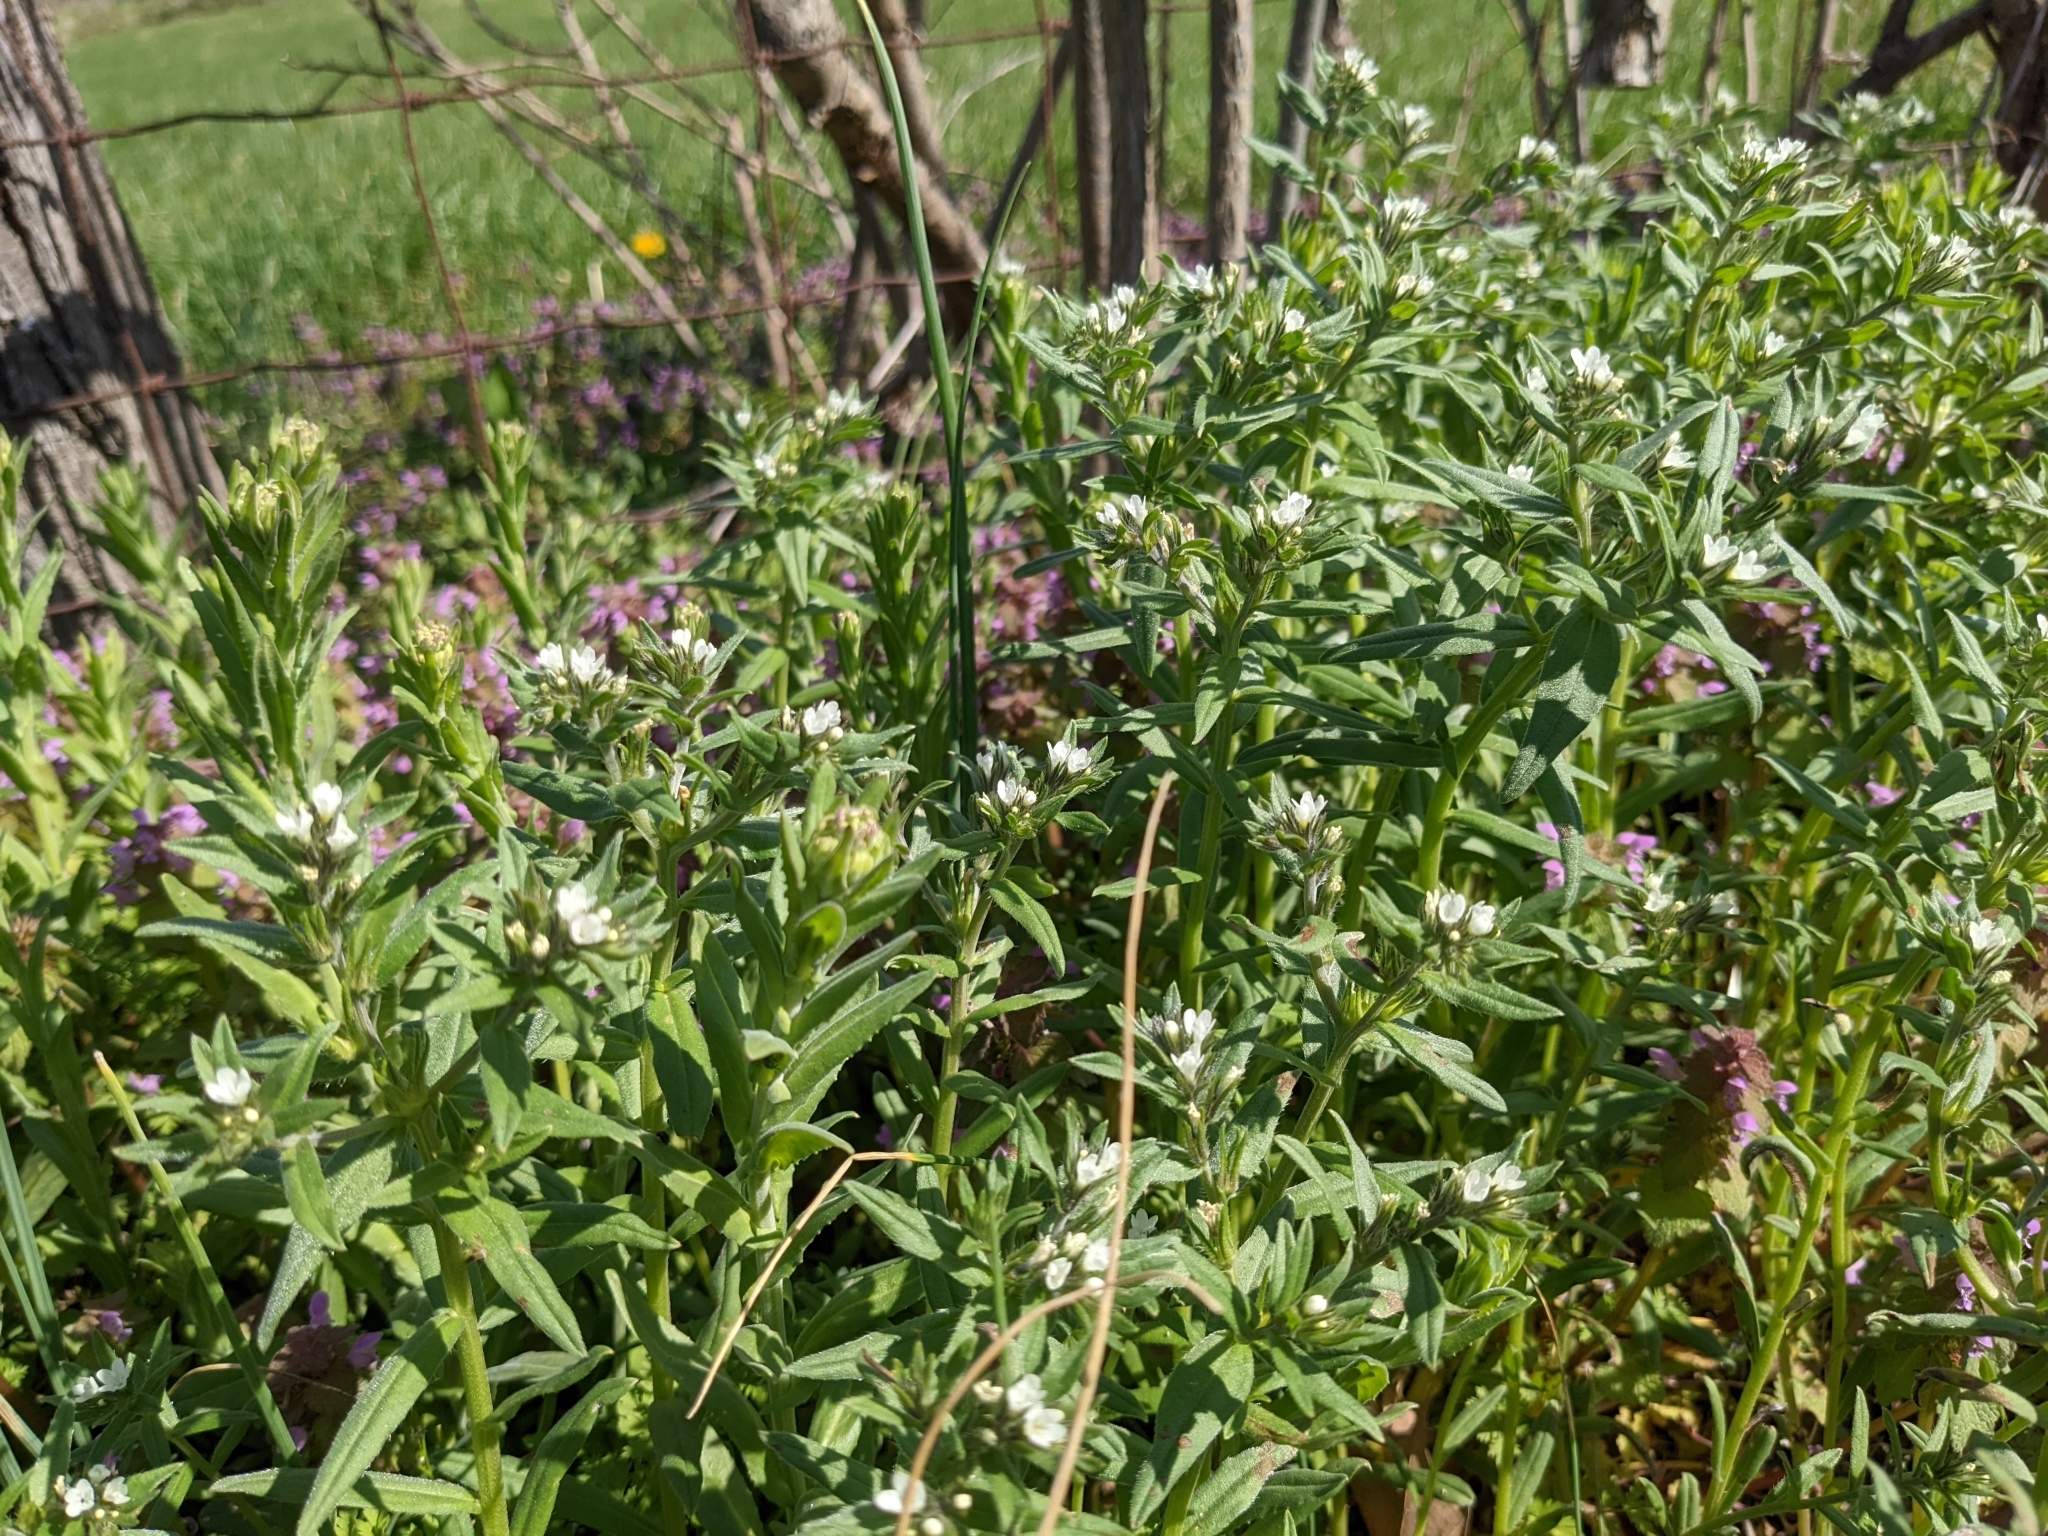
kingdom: Plantae
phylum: Tracheophyta
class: Magnoliopsida
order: Boraginales
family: Boraginaceae
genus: Buglossoides
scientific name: Buglossoides arvensis
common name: Corn gromwell
